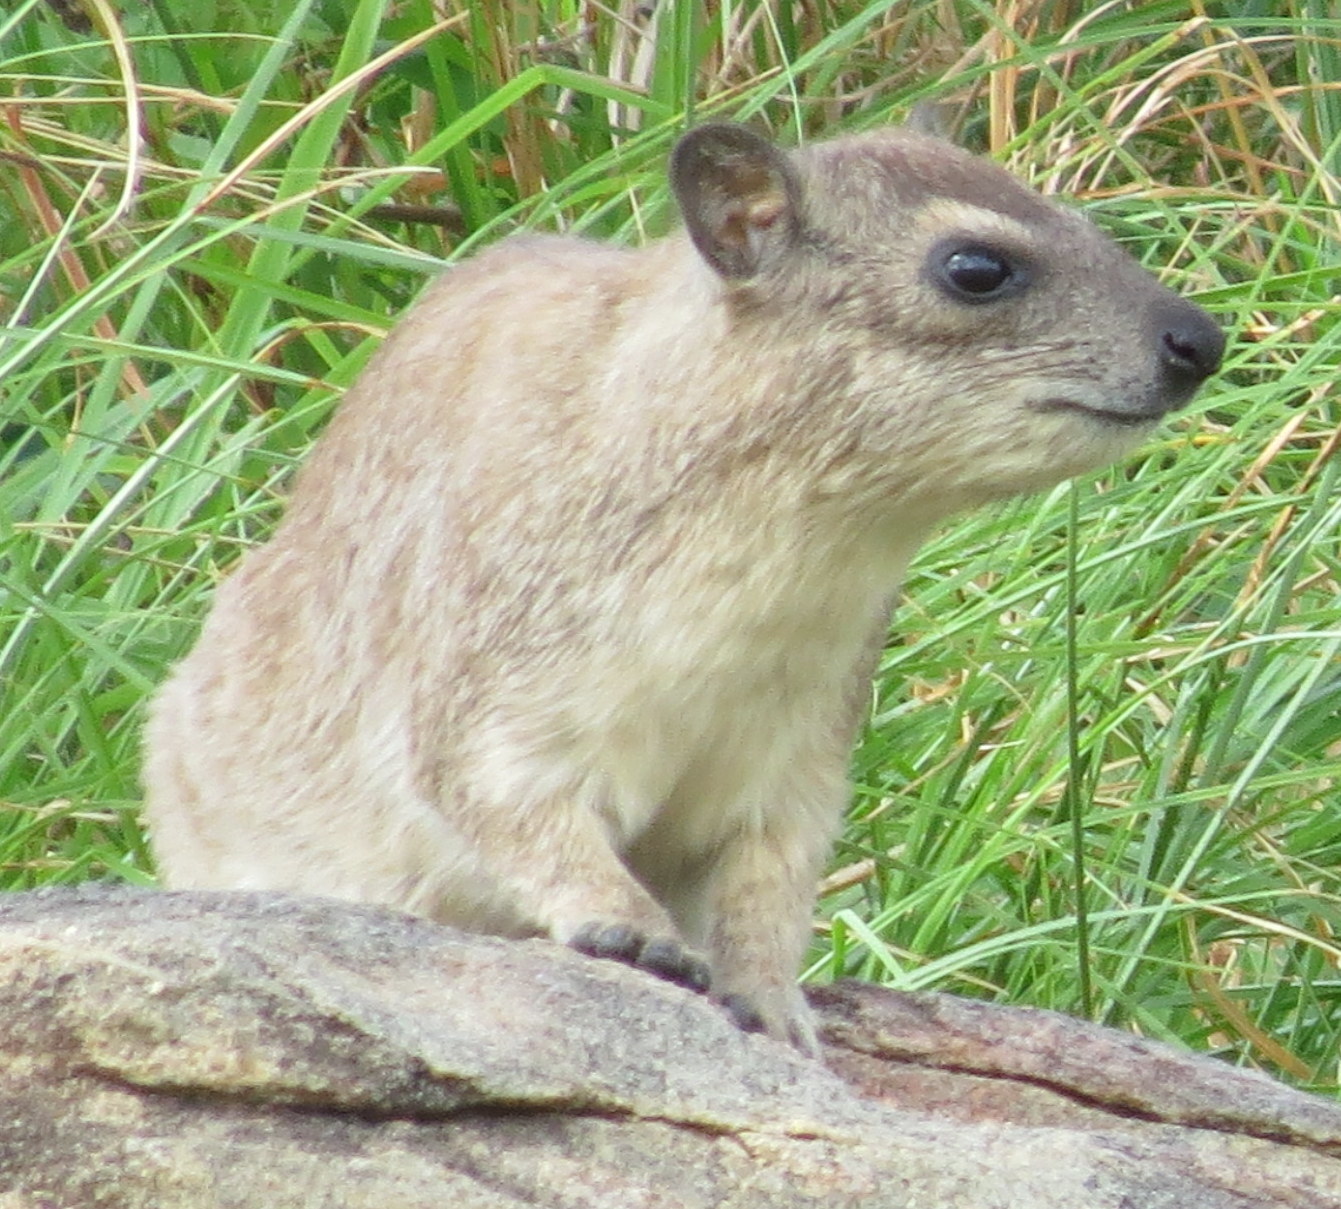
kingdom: Animalia
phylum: Chordata
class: Mammalia
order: Hyracoidea
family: Procaviidae
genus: Heterohyrax
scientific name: Heterohyrax brucei
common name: Bush hyrax
